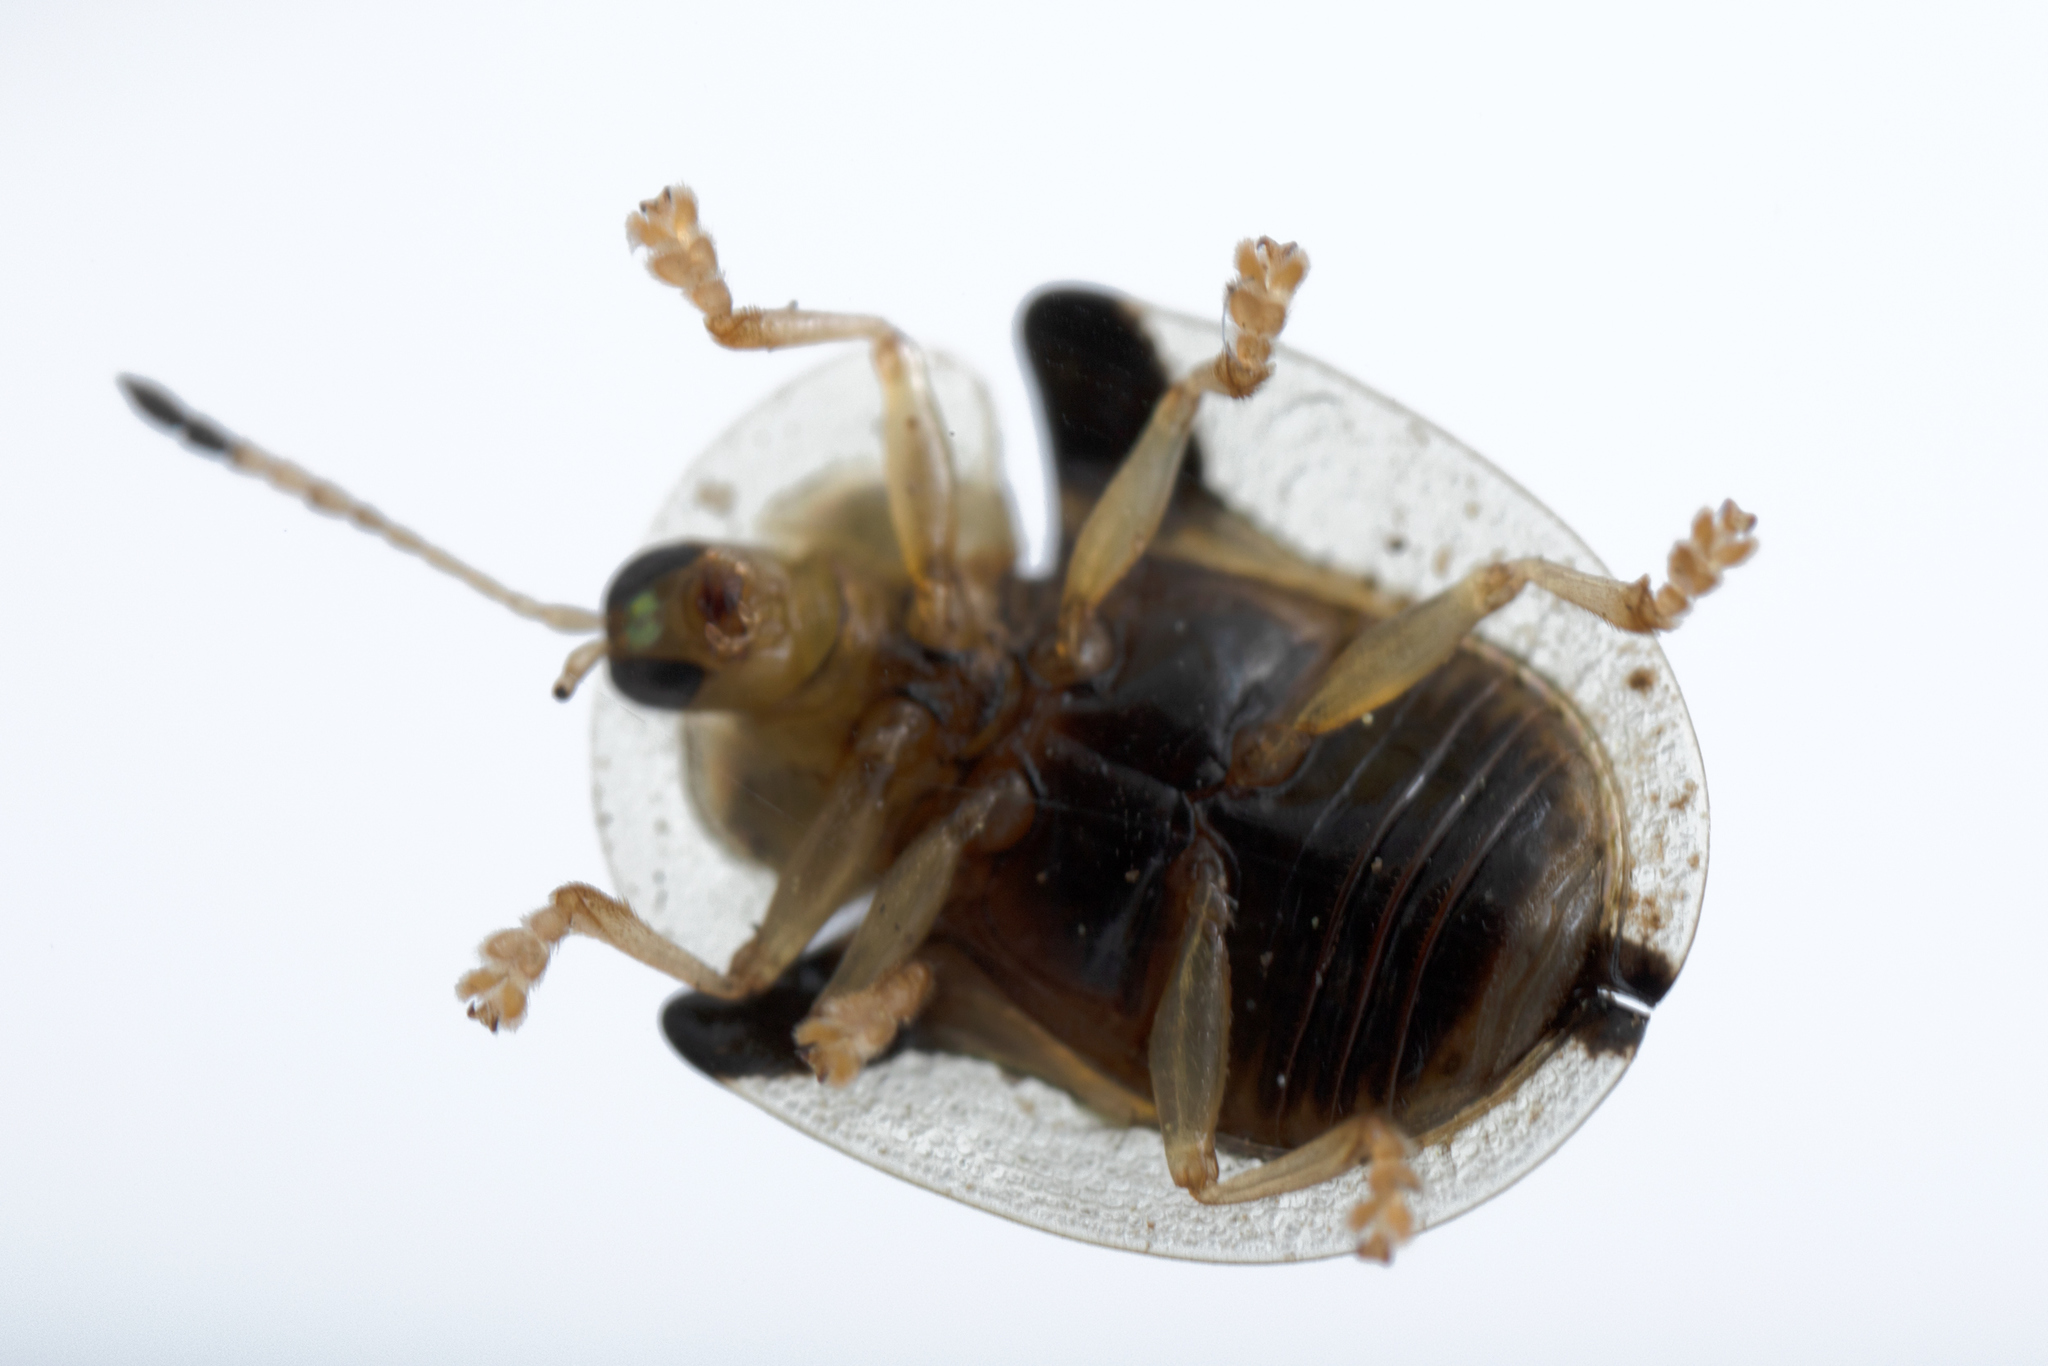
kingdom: Animalia
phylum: Arthropoda
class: Insecta
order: Coleoptera
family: Chrysomelidae
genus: Deloyala
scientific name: Deloyala guttata
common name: Mottled tortoise beetle
